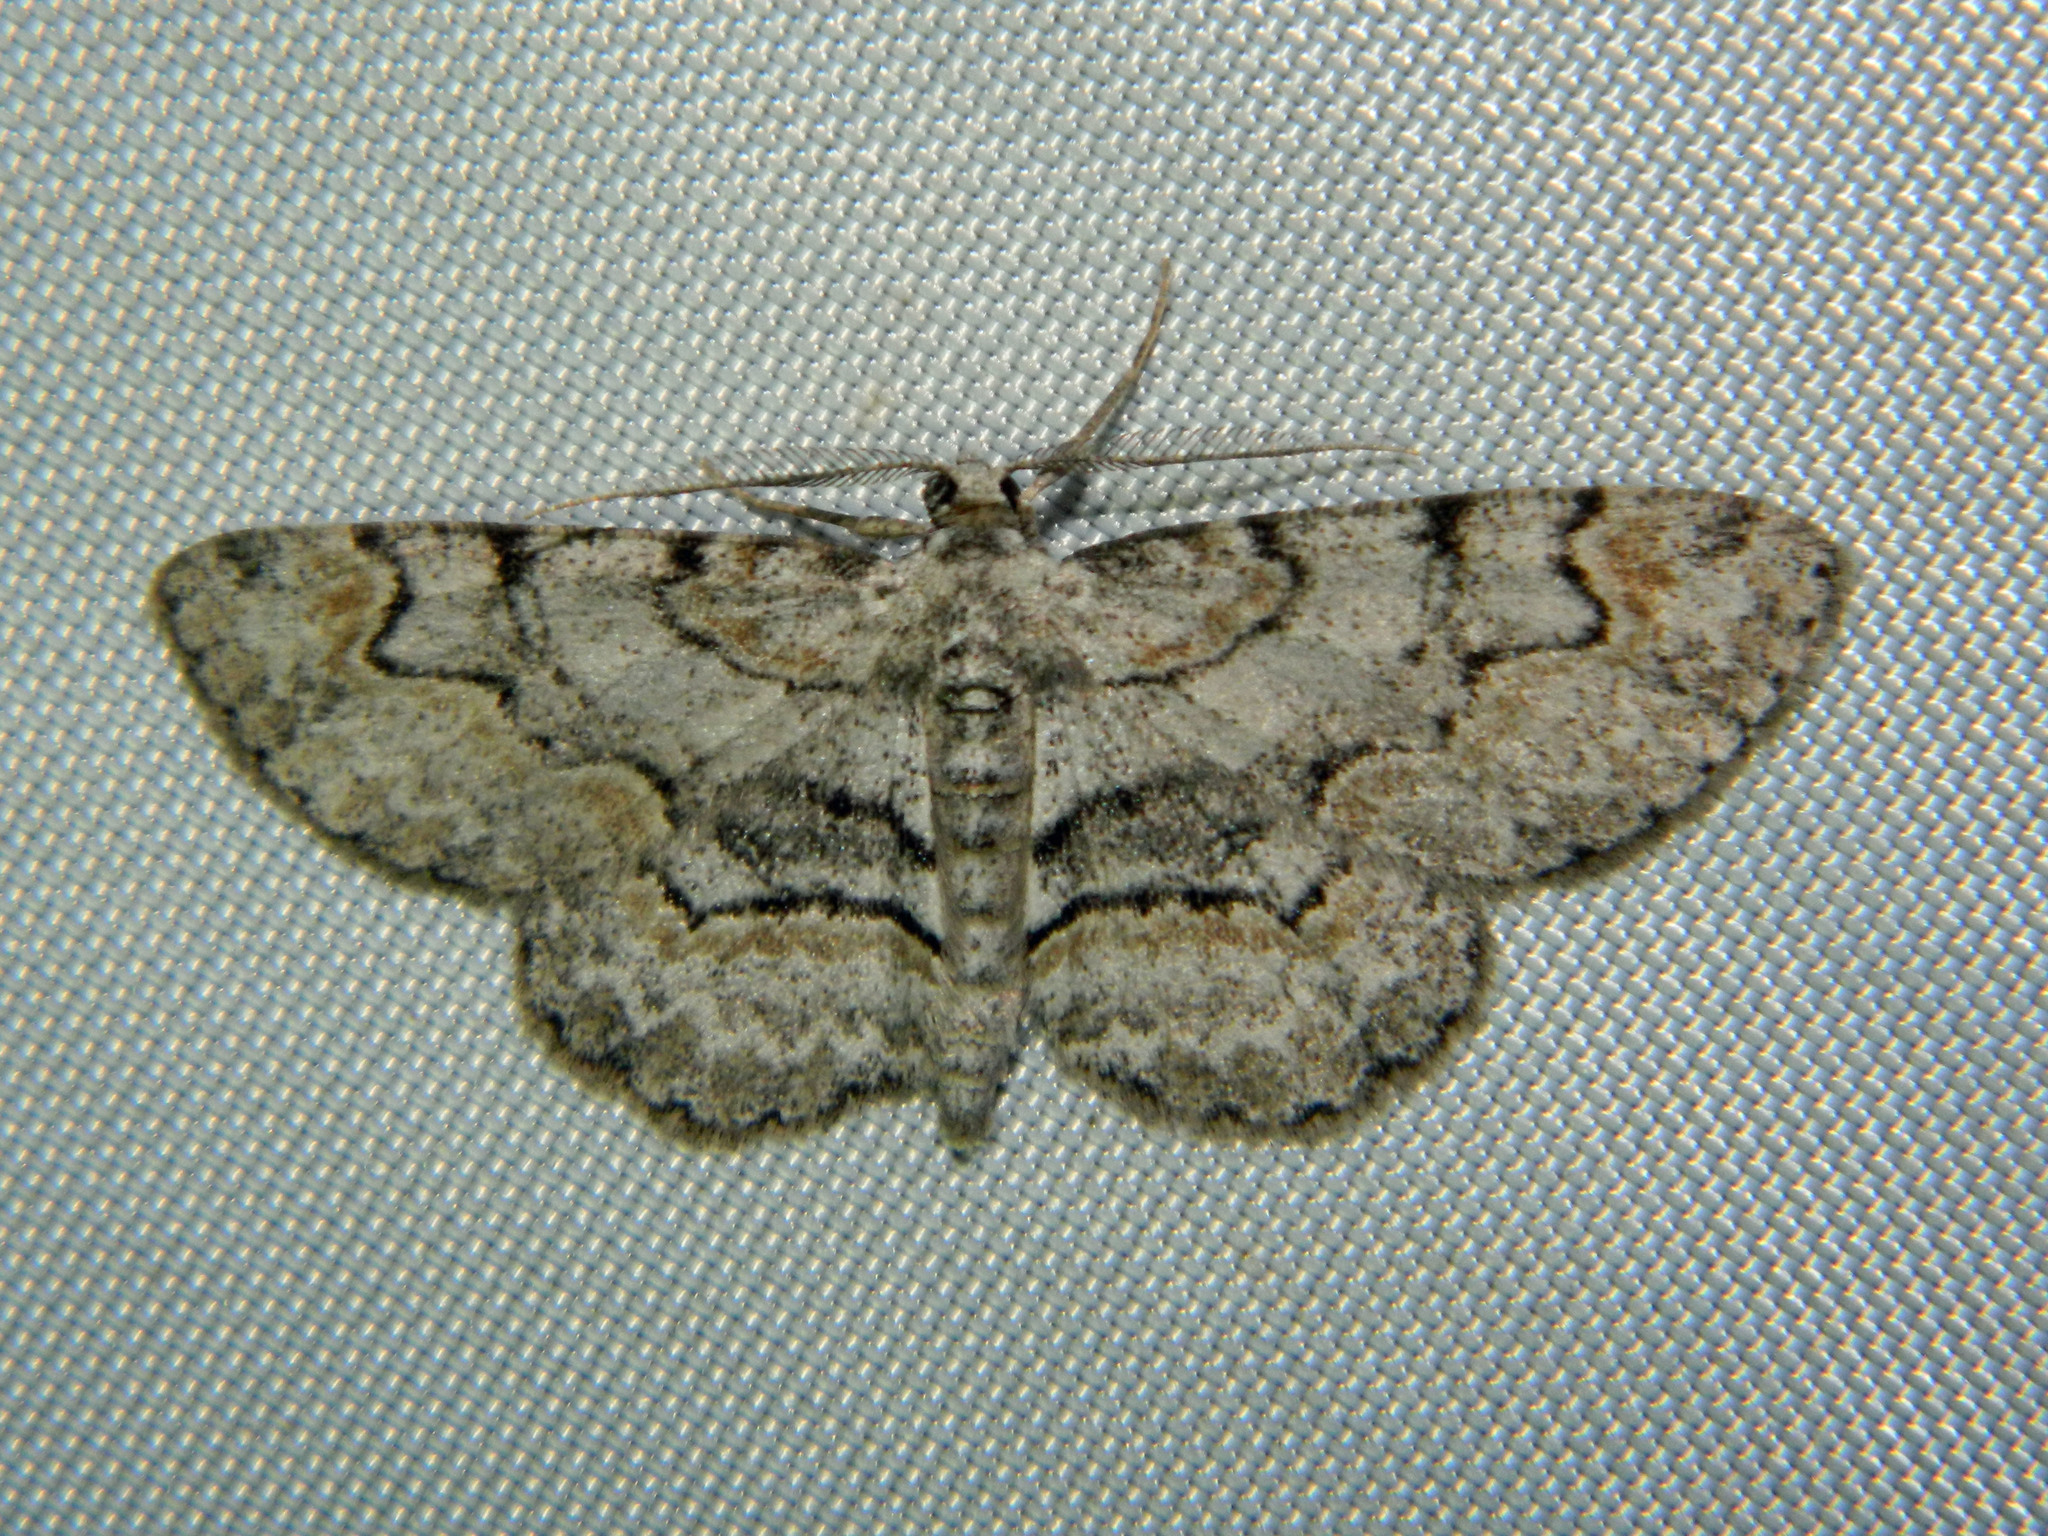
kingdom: Animalia
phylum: Arthropoda
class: Insecta
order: Lepidoptera
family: Geometridae
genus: Iridopsis
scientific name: Iridopsis ephyraria
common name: Pale-winged gray
